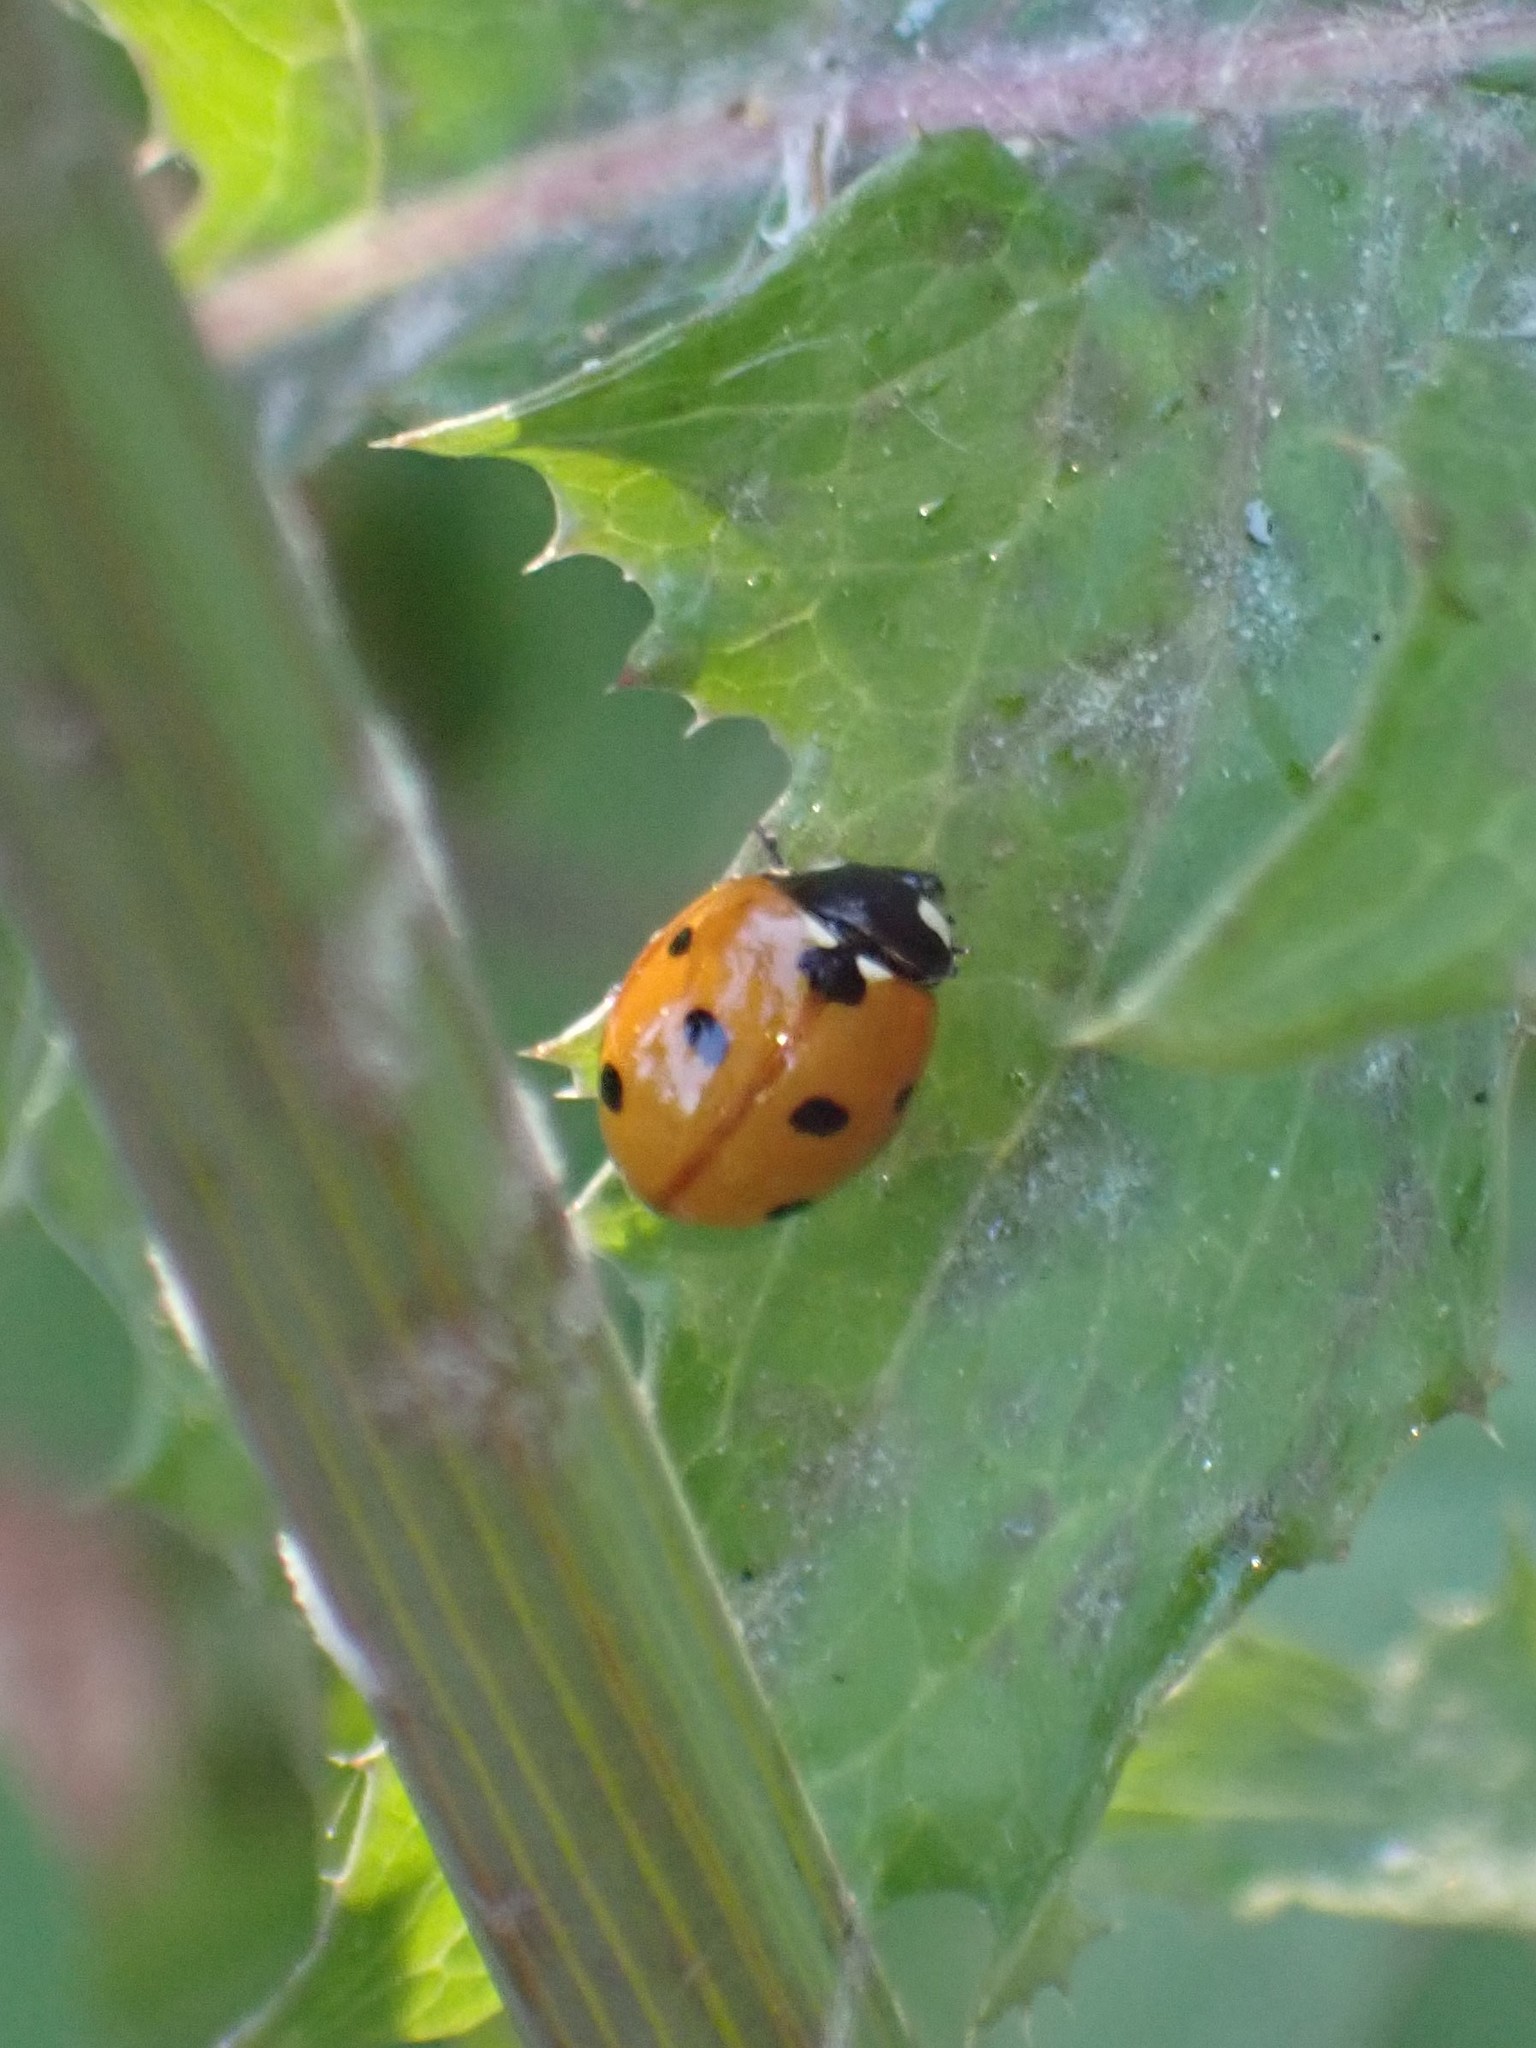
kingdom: Animalia
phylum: Arthropoda
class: Insecta
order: Coleoptera
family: Coccinellidae
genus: Coccinella
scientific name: Coccinella septempunctata
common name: Sevenspotted lady beetle
